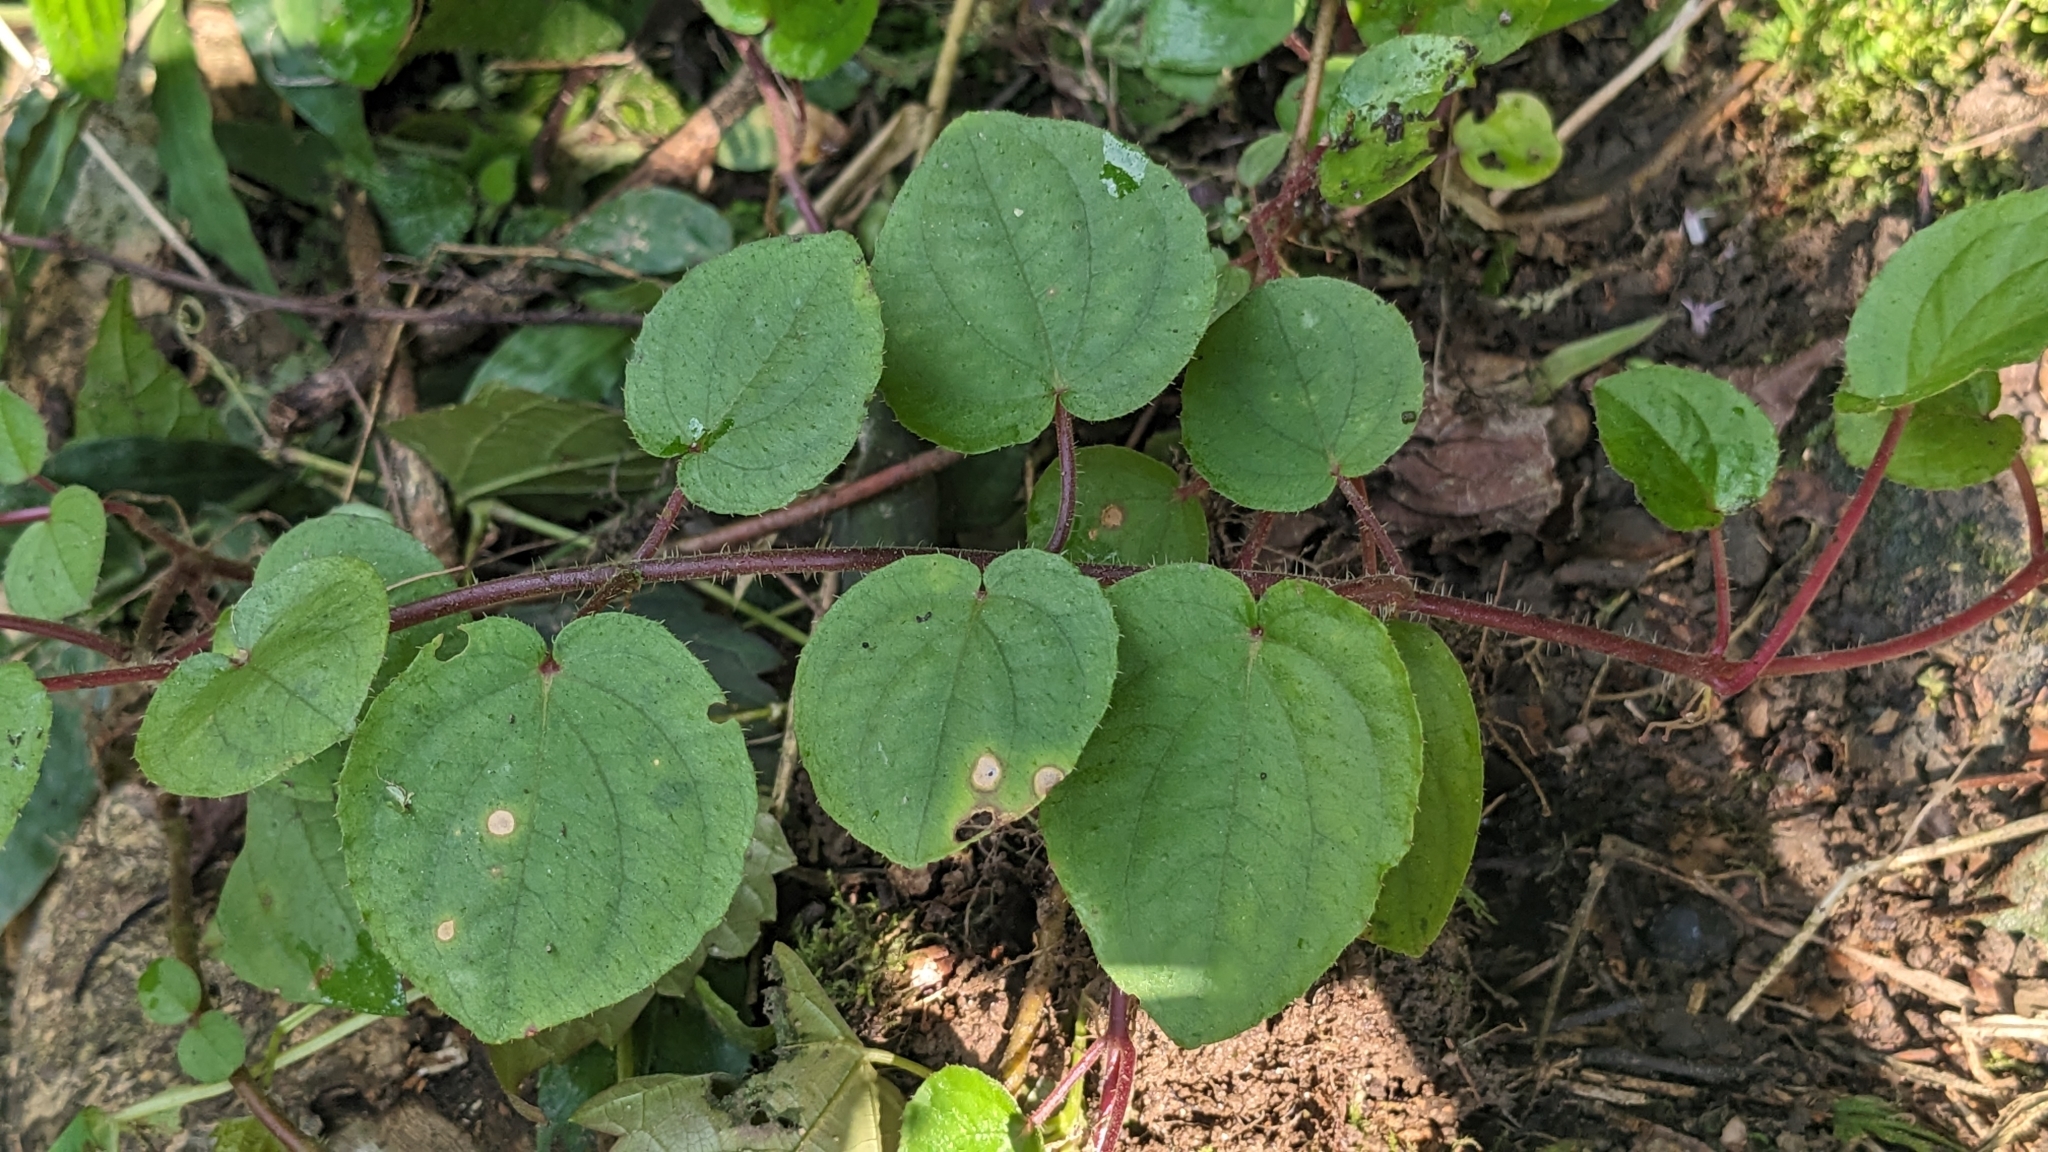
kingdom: Plantae
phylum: Tracheophyta
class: Magnoliopsida
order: Myrtales
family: Melastomataceae
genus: Bredia
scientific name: Bredia hirsuta
